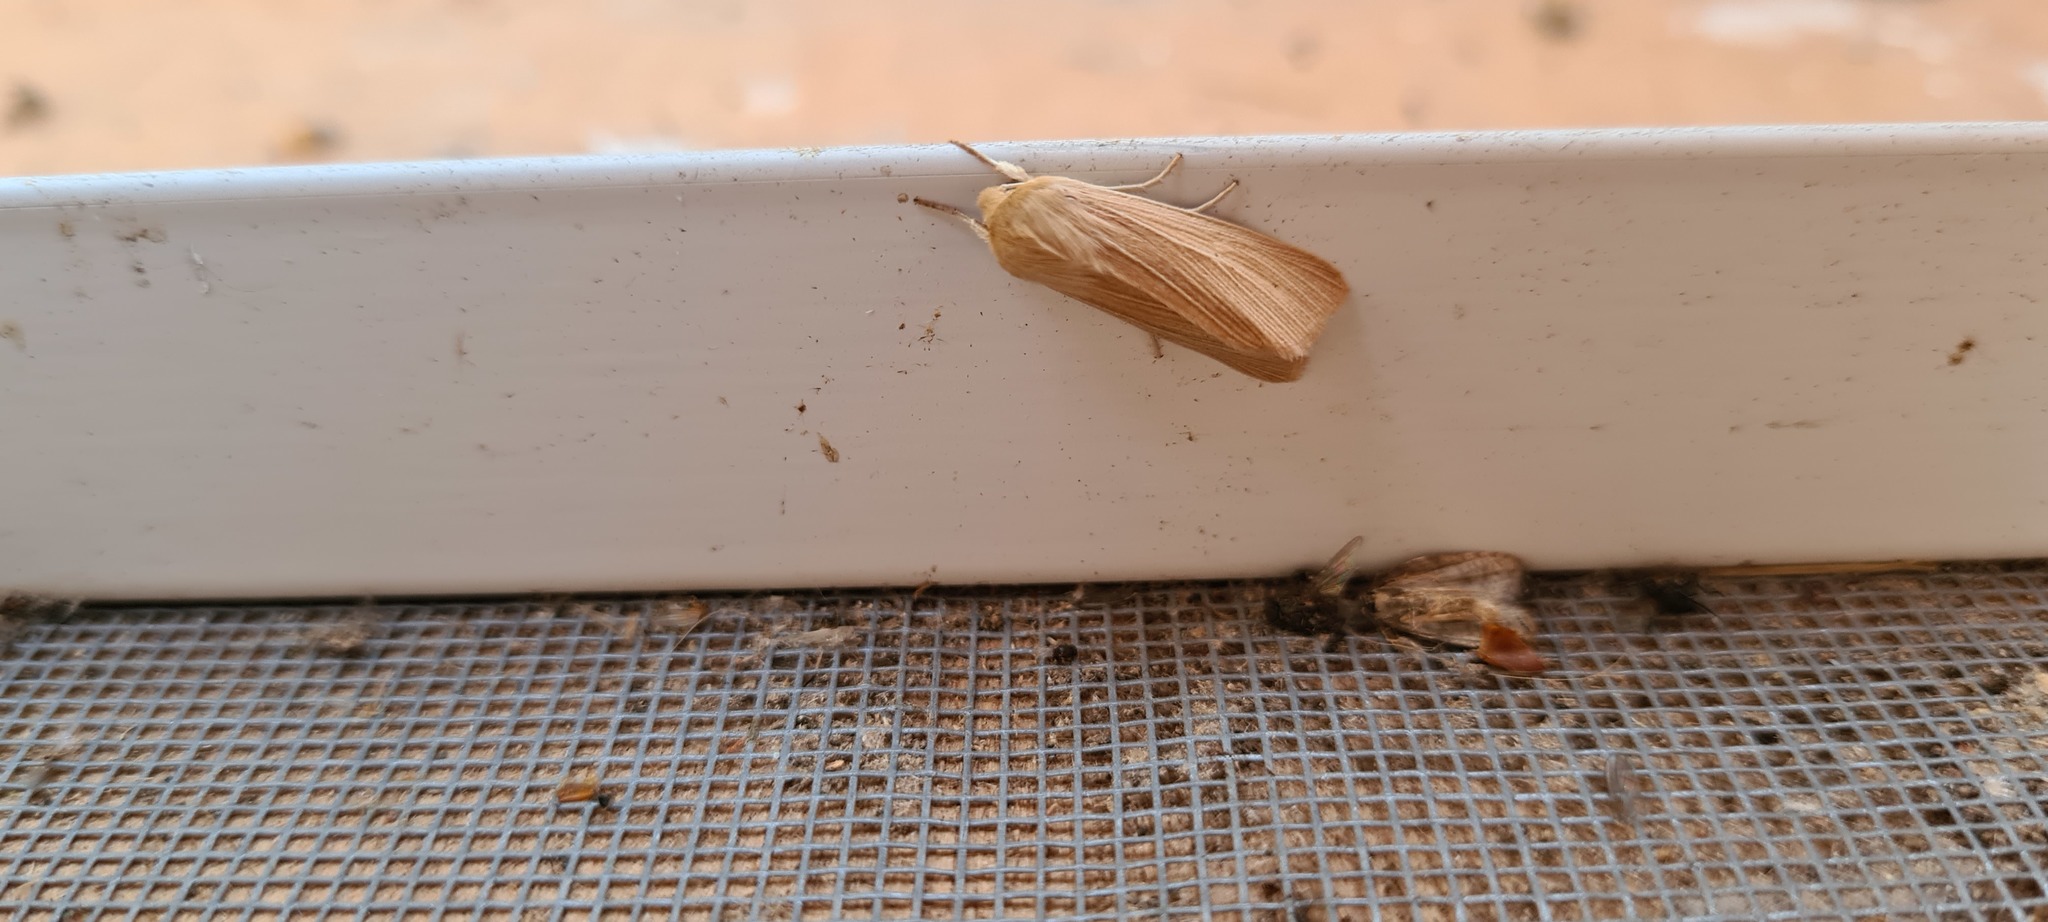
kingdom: Animalia
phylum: Arthropoda
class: Insecta
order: Lepidoptera
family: Noctuidae
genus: Mythimna
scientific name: Mythimna pallens
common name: Common wainscot
